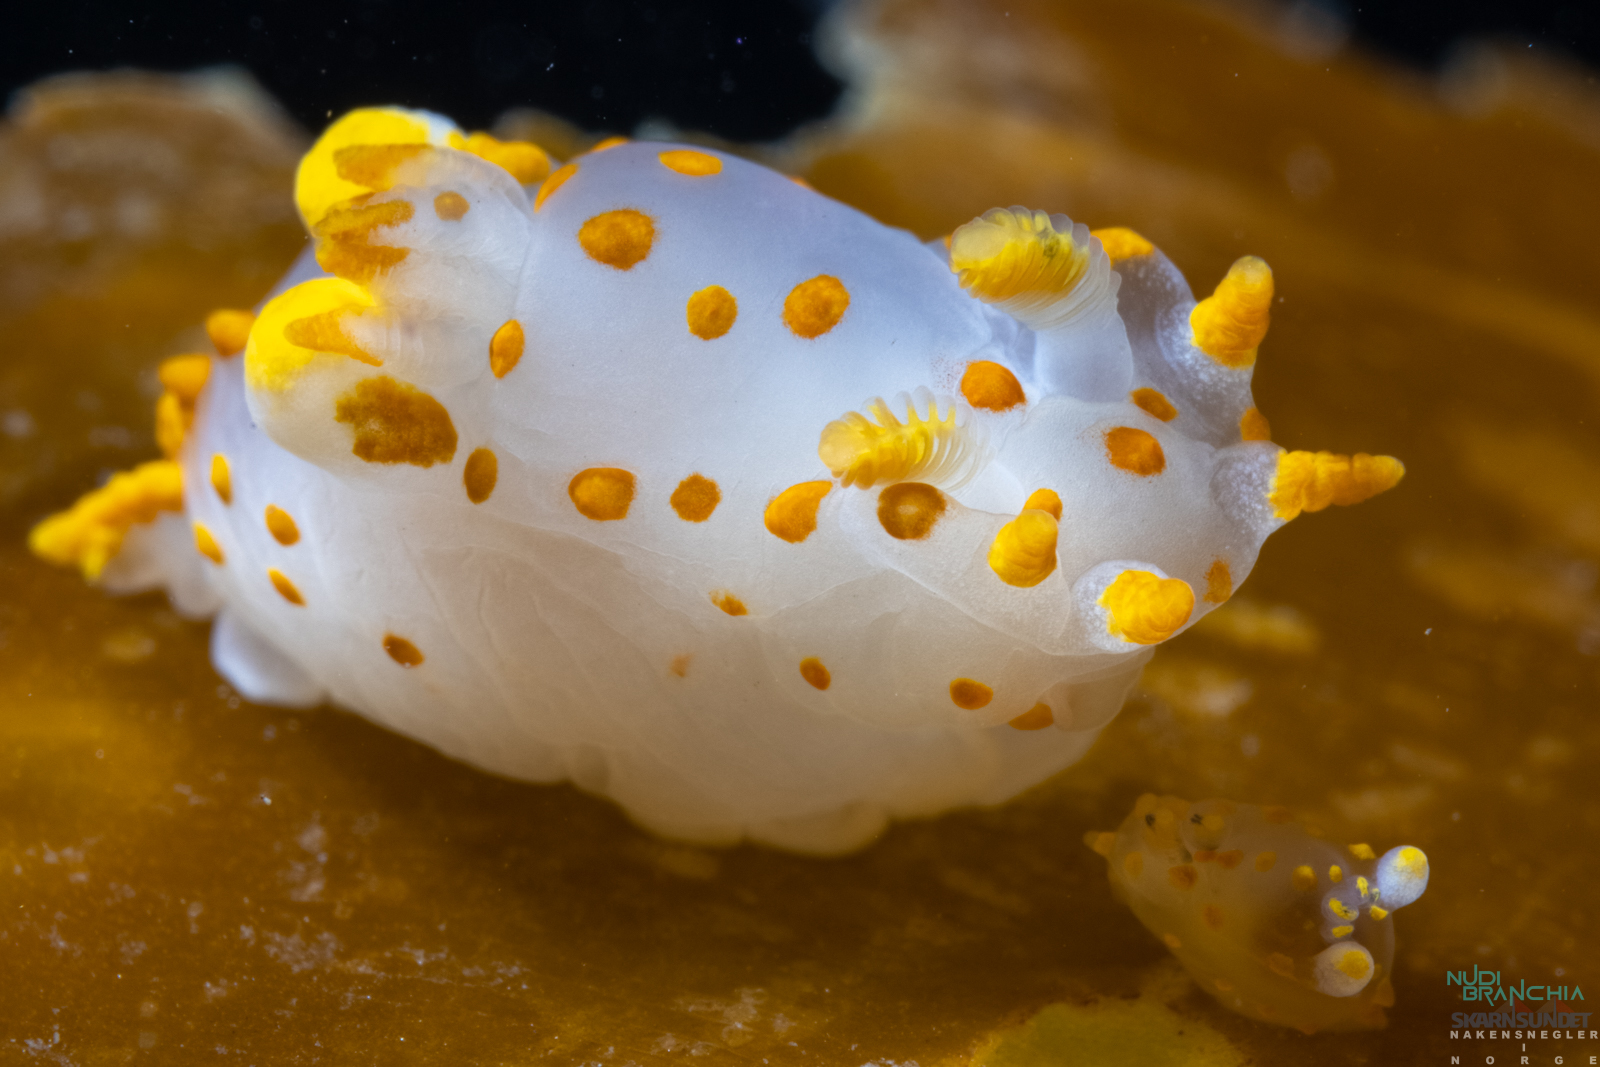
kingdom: Animalia
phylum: Mollusca
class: Gastropoda
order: Nudibranchia
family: Polyceridae
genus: Polycera
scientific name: Polycera quadrilineata
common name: Four-striped polycera
